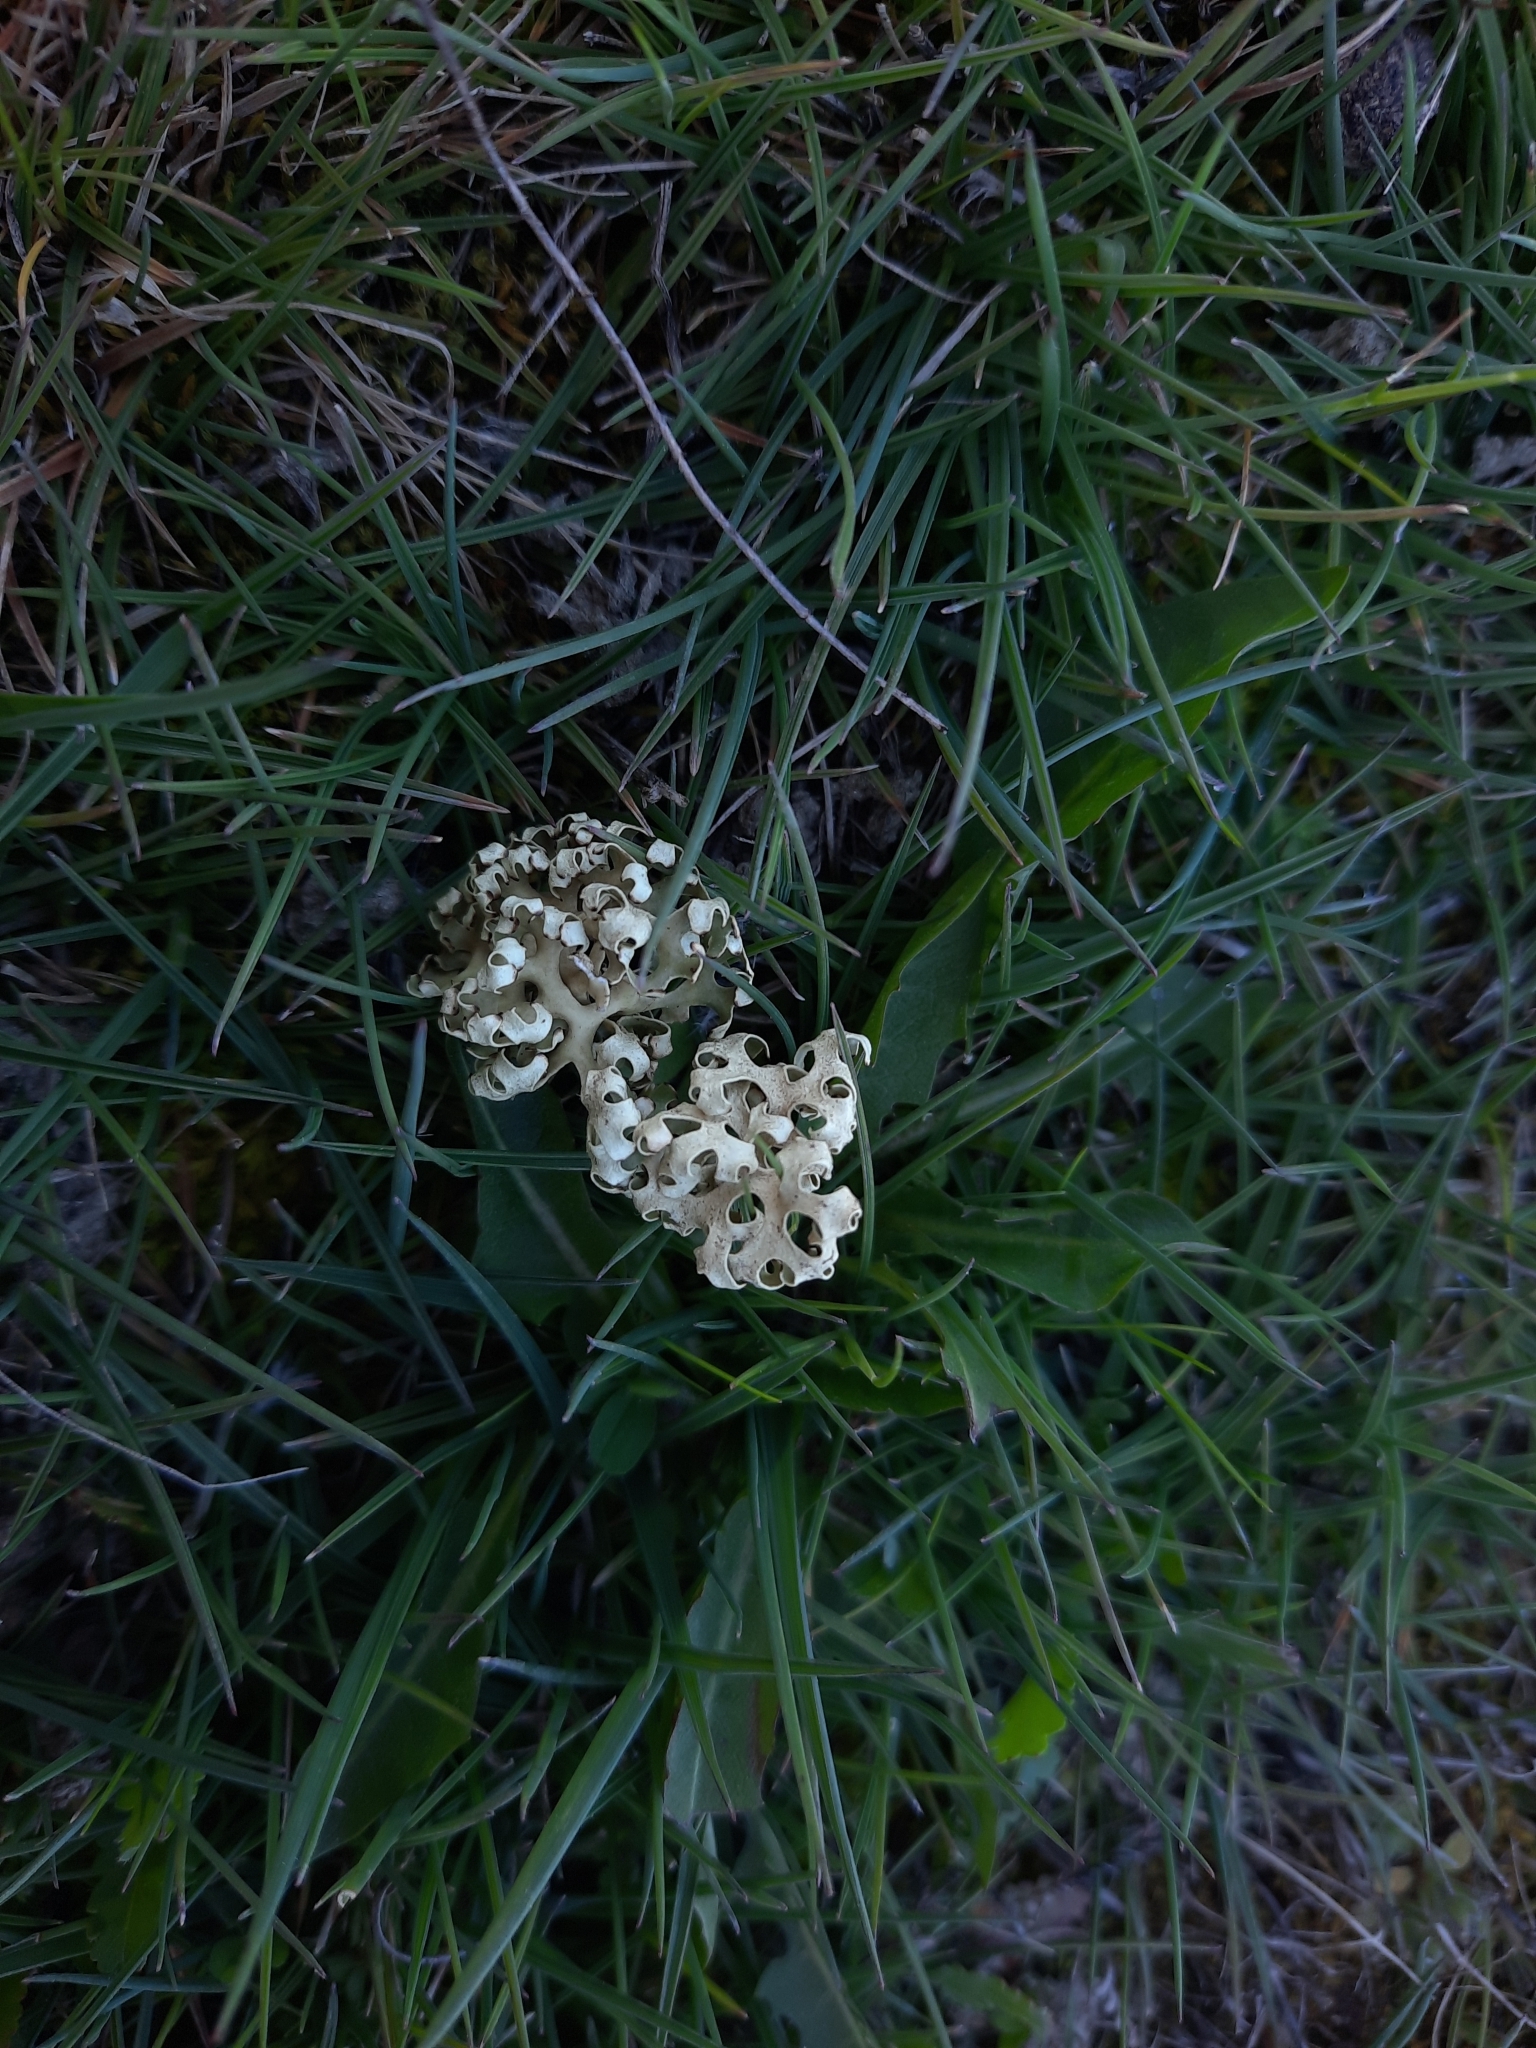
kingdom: Fungi
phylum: Ascomycota
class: Lecanoromycetes
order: Lecanorales
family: Parmeliaceae
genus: Xanthoparmelia
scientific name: Xanthoparmelia semiviridis
